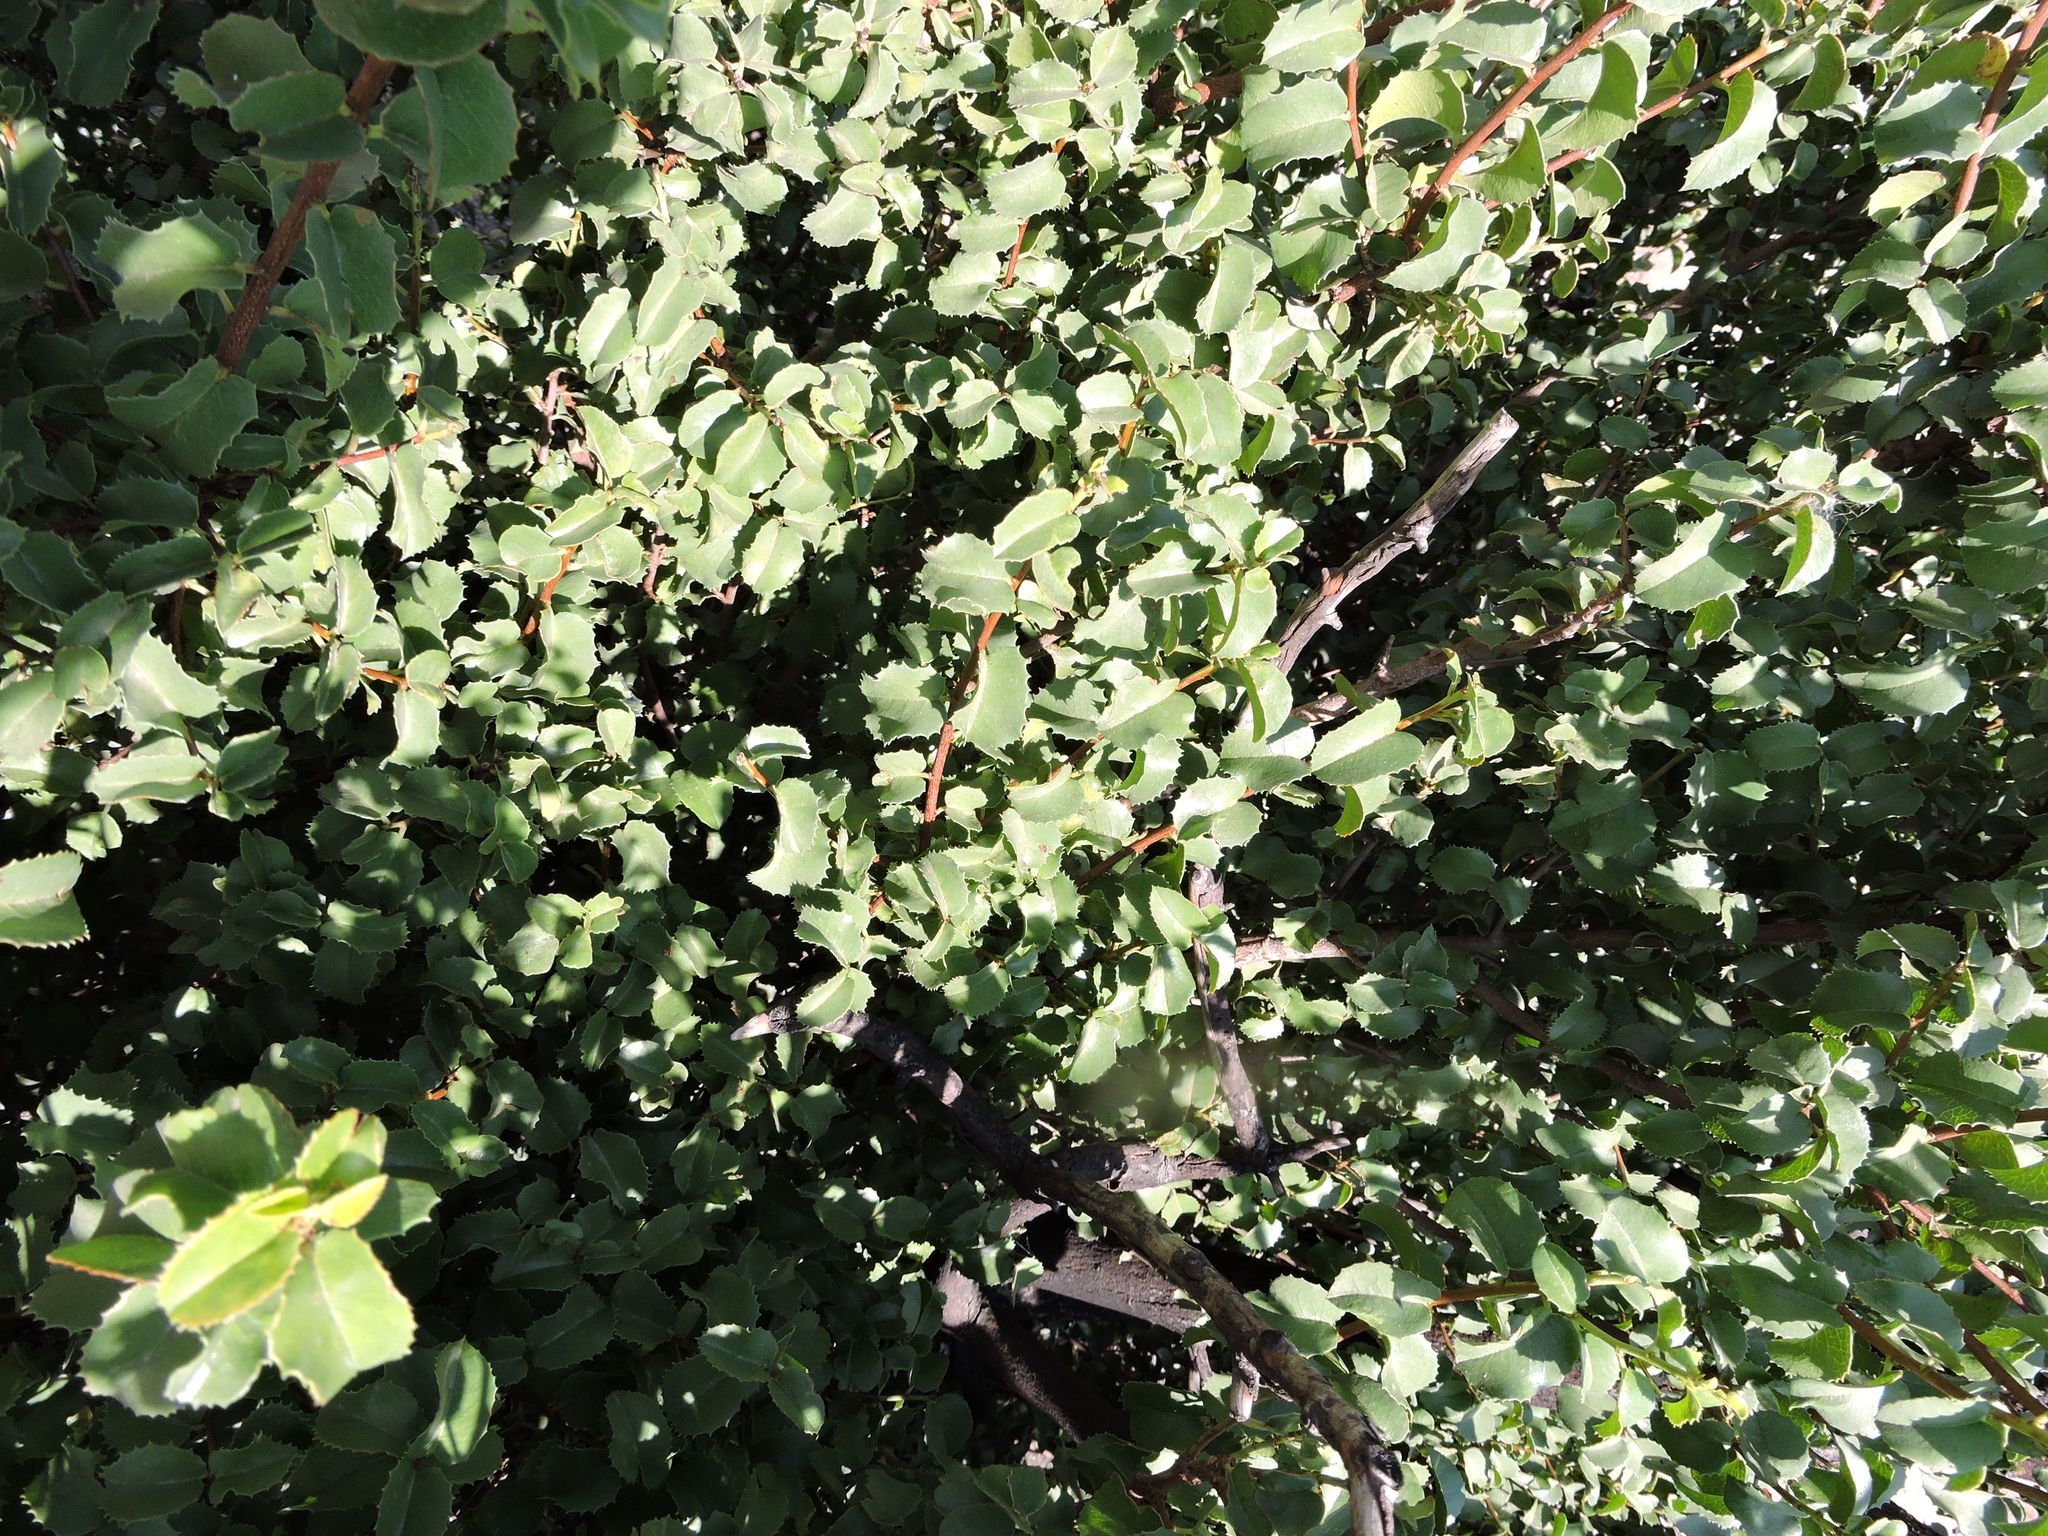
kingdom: Plantae
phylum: Tracheophyta
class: Magnoliopsida
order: Rosales
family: Rosaceae
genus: Prunus
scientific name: Prunus ilicifolia
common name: Hollyleaf cherry
